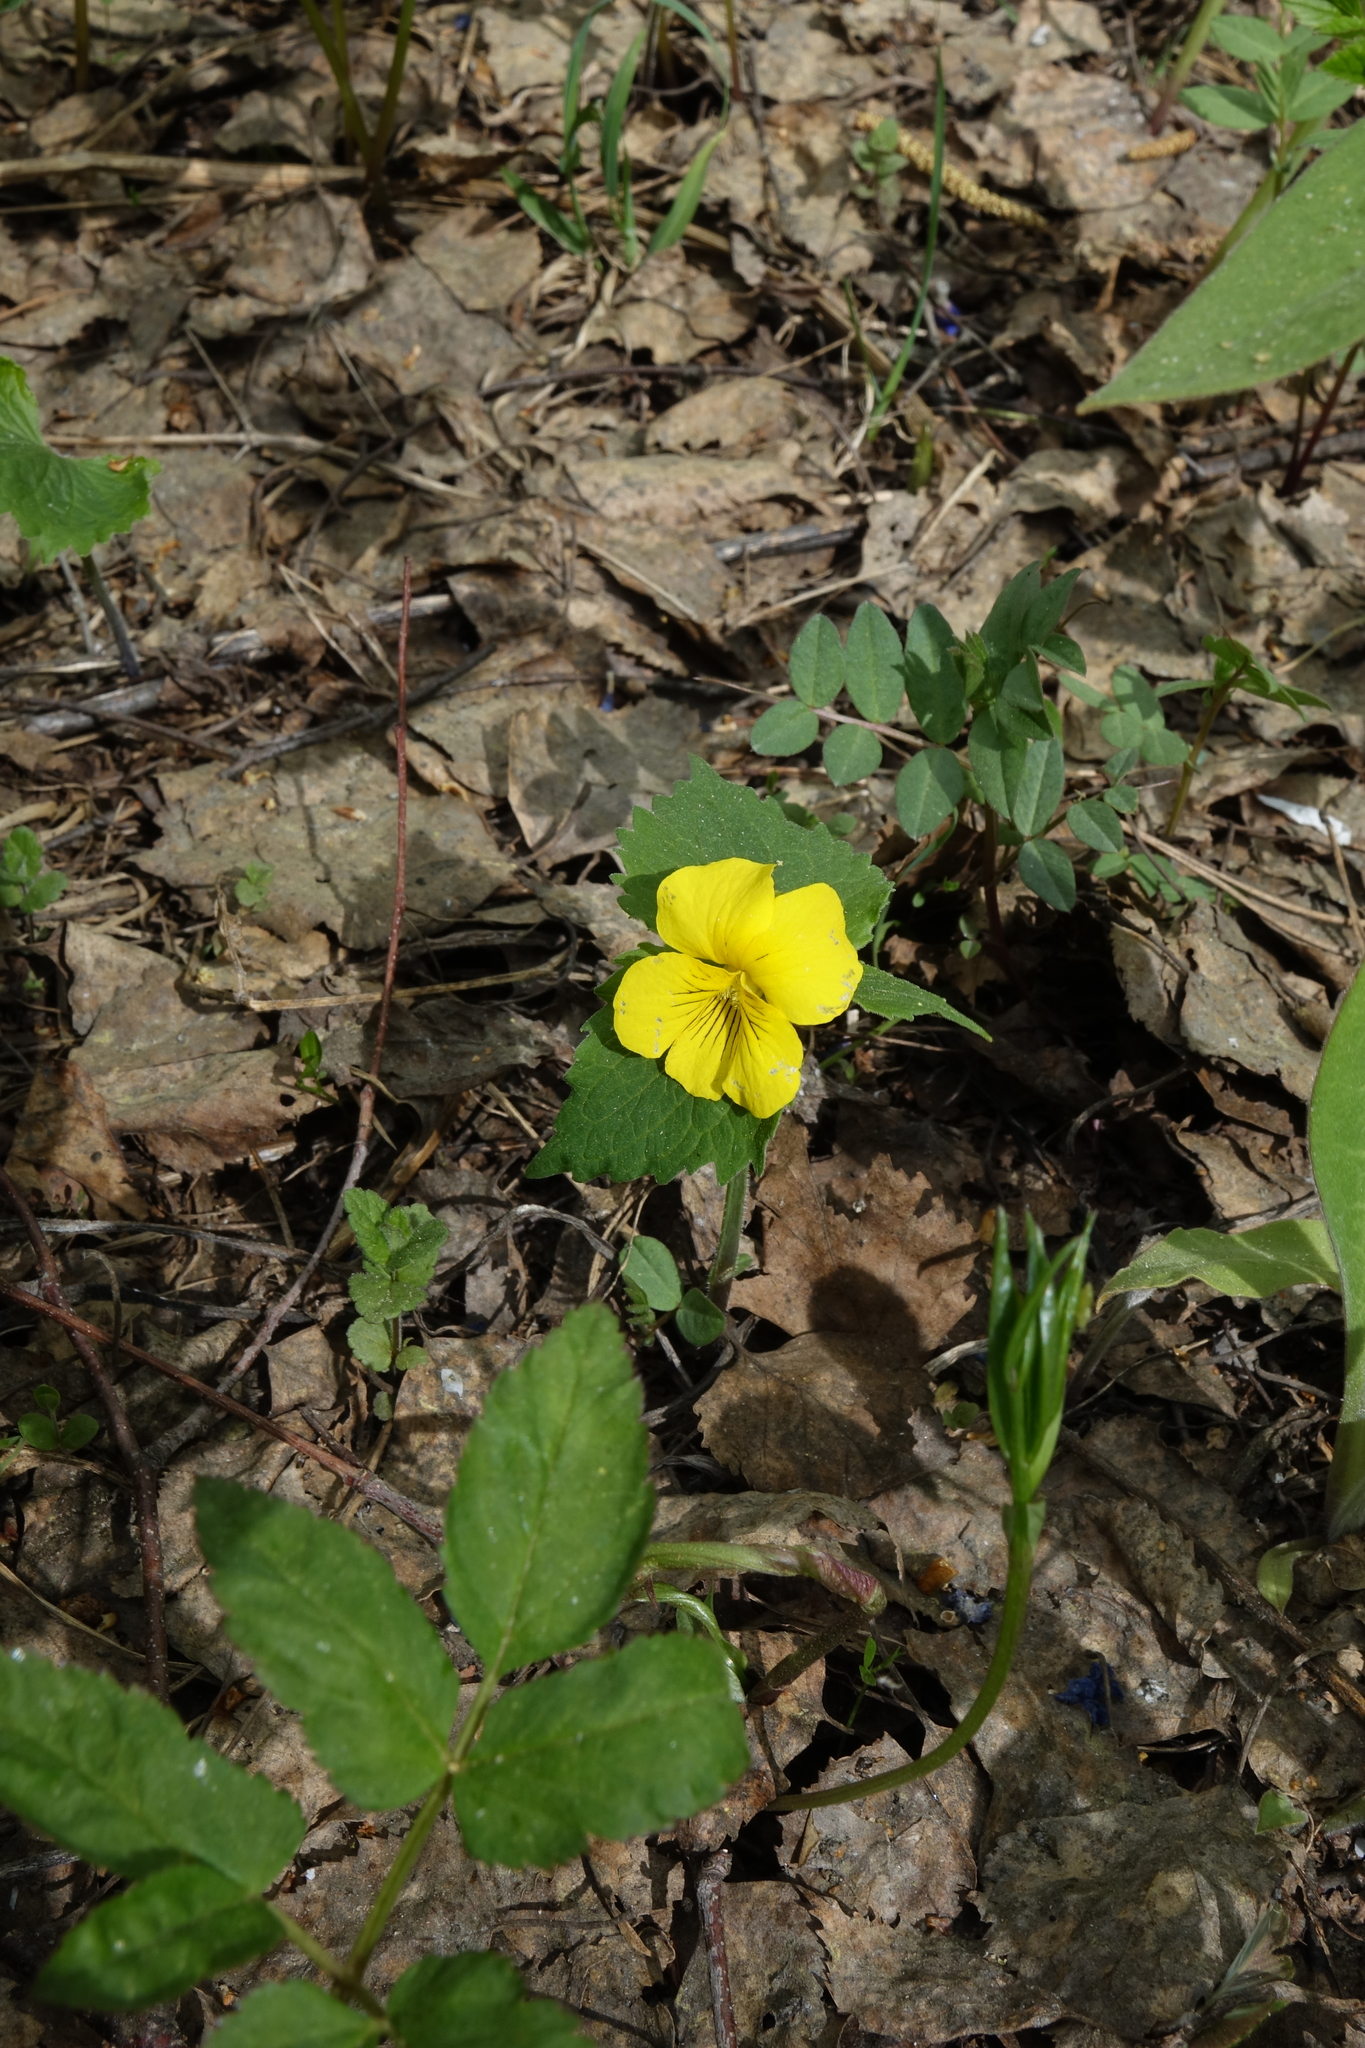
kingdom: Plantae
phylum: Tracheophyta
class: Magnoliopsida
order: Malpighiales
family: Violaceae
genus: Viola
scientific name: Viola uniflora
